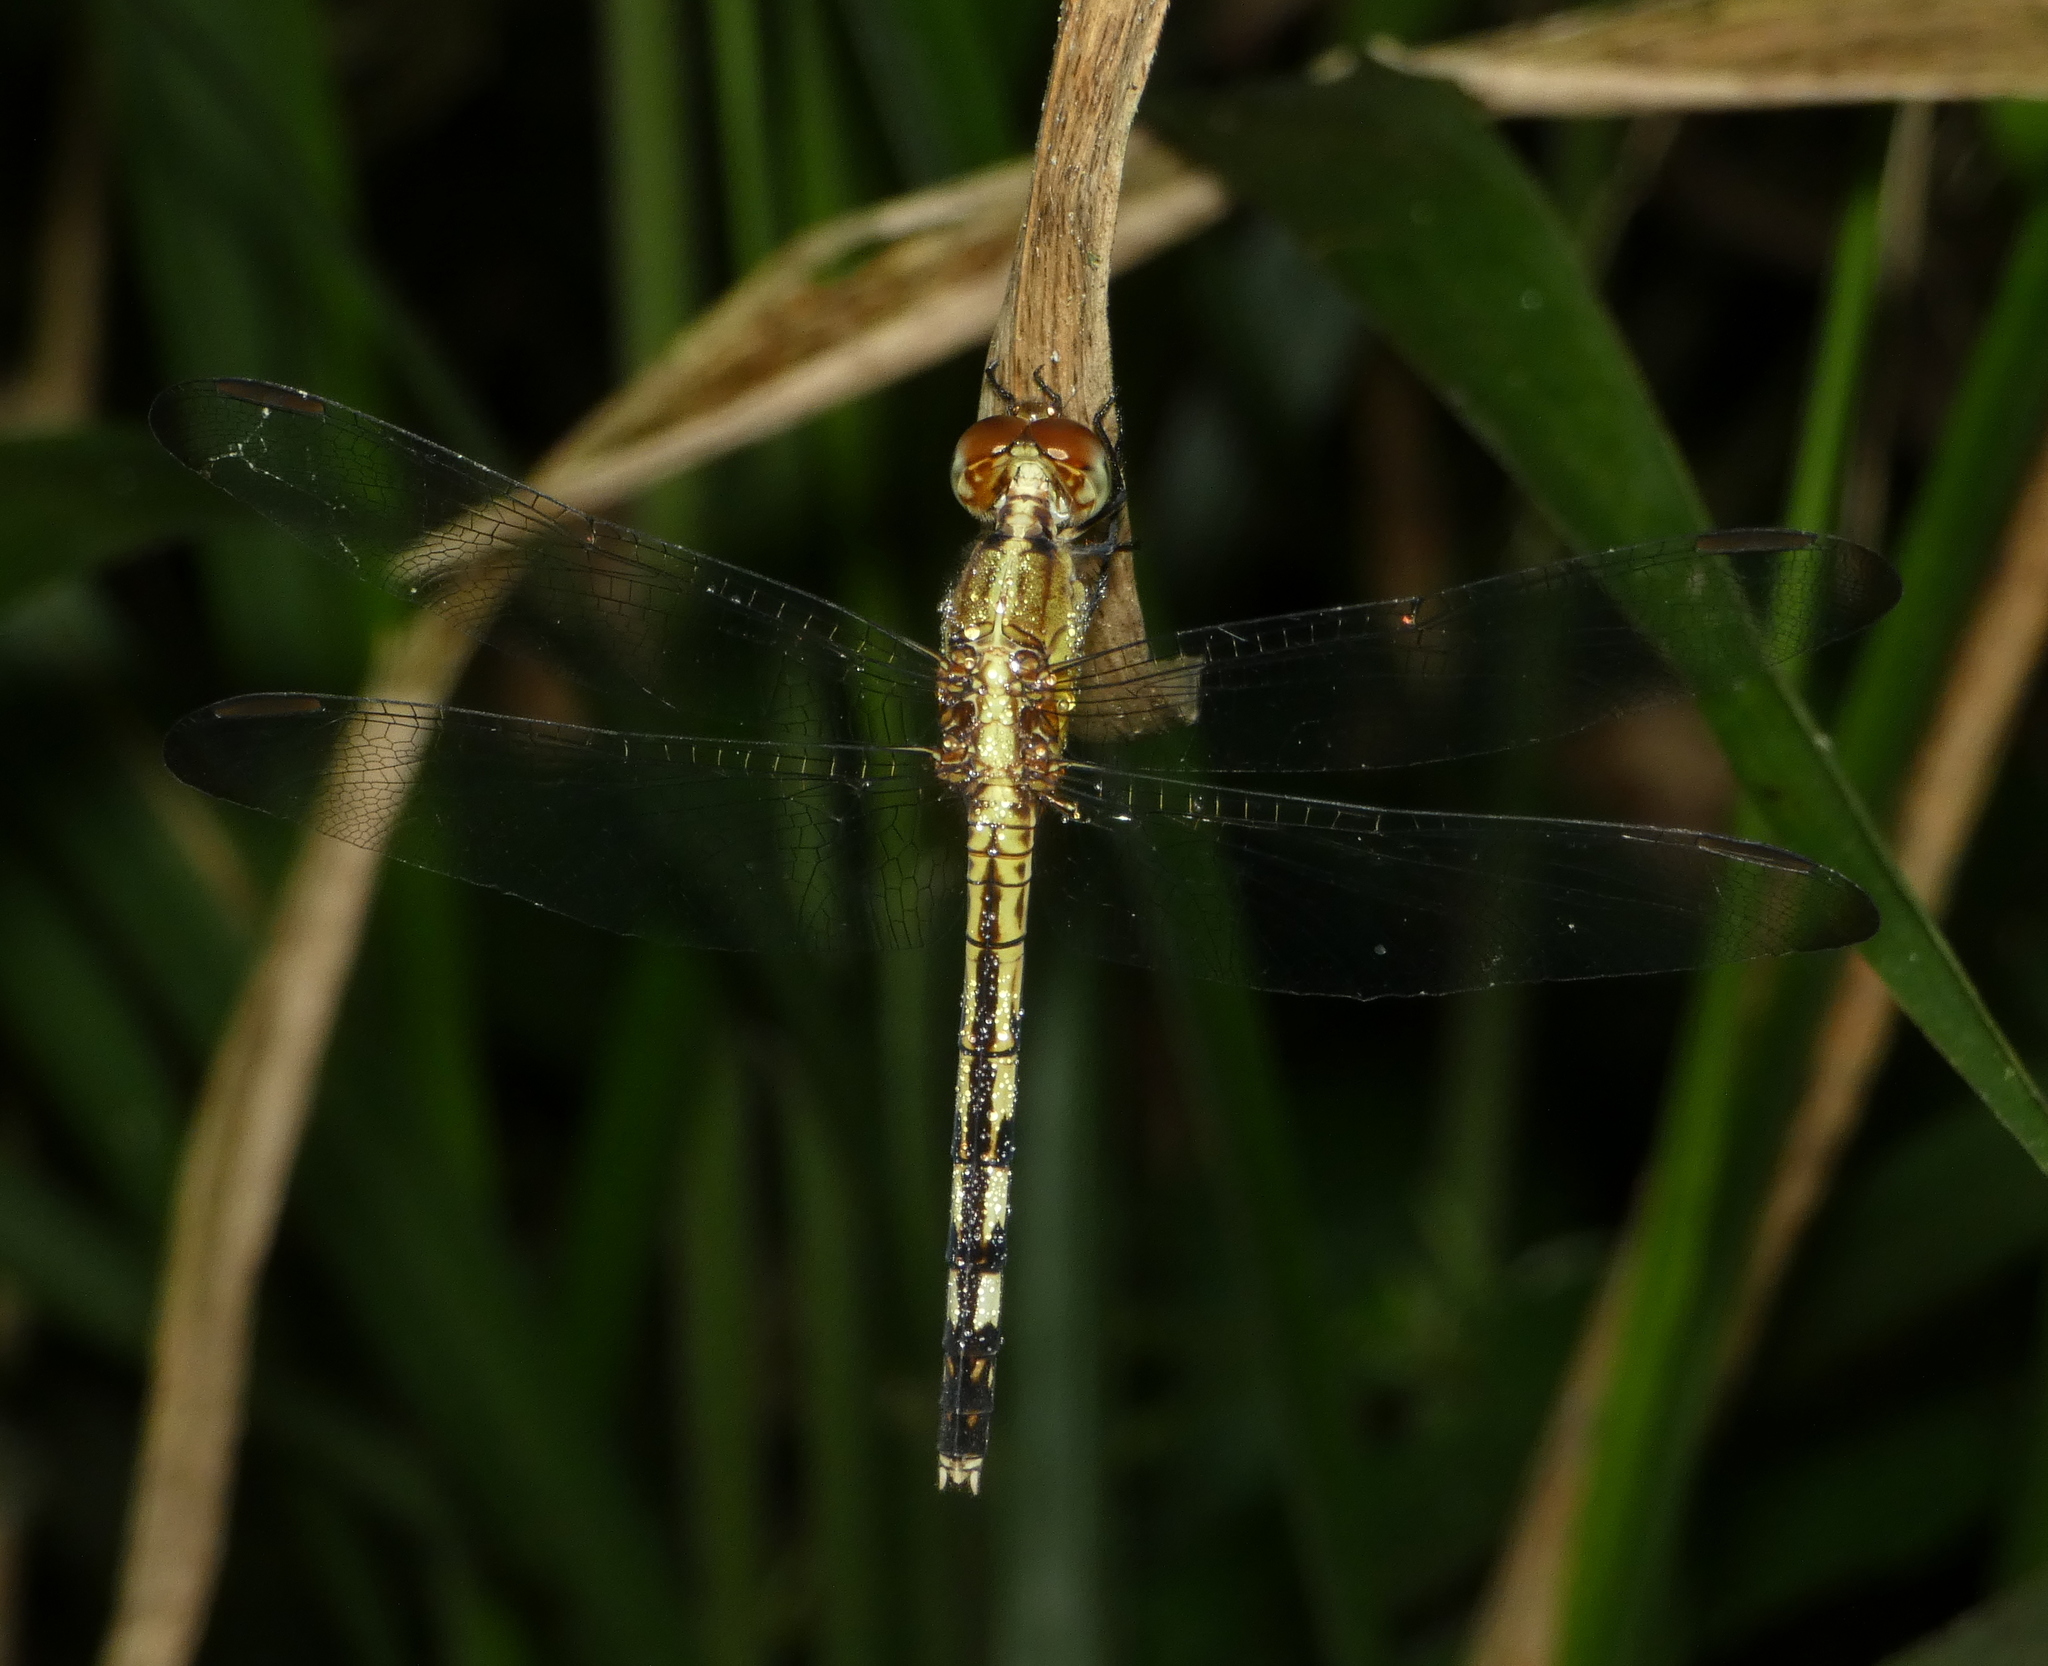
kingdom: Animalia
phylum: Arthropoda
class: Insecta
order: Odonata
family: Libellulidae
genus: Erythrodiplax
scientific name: Erythrodiplax umbrata
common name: Band-winged dragonlet
